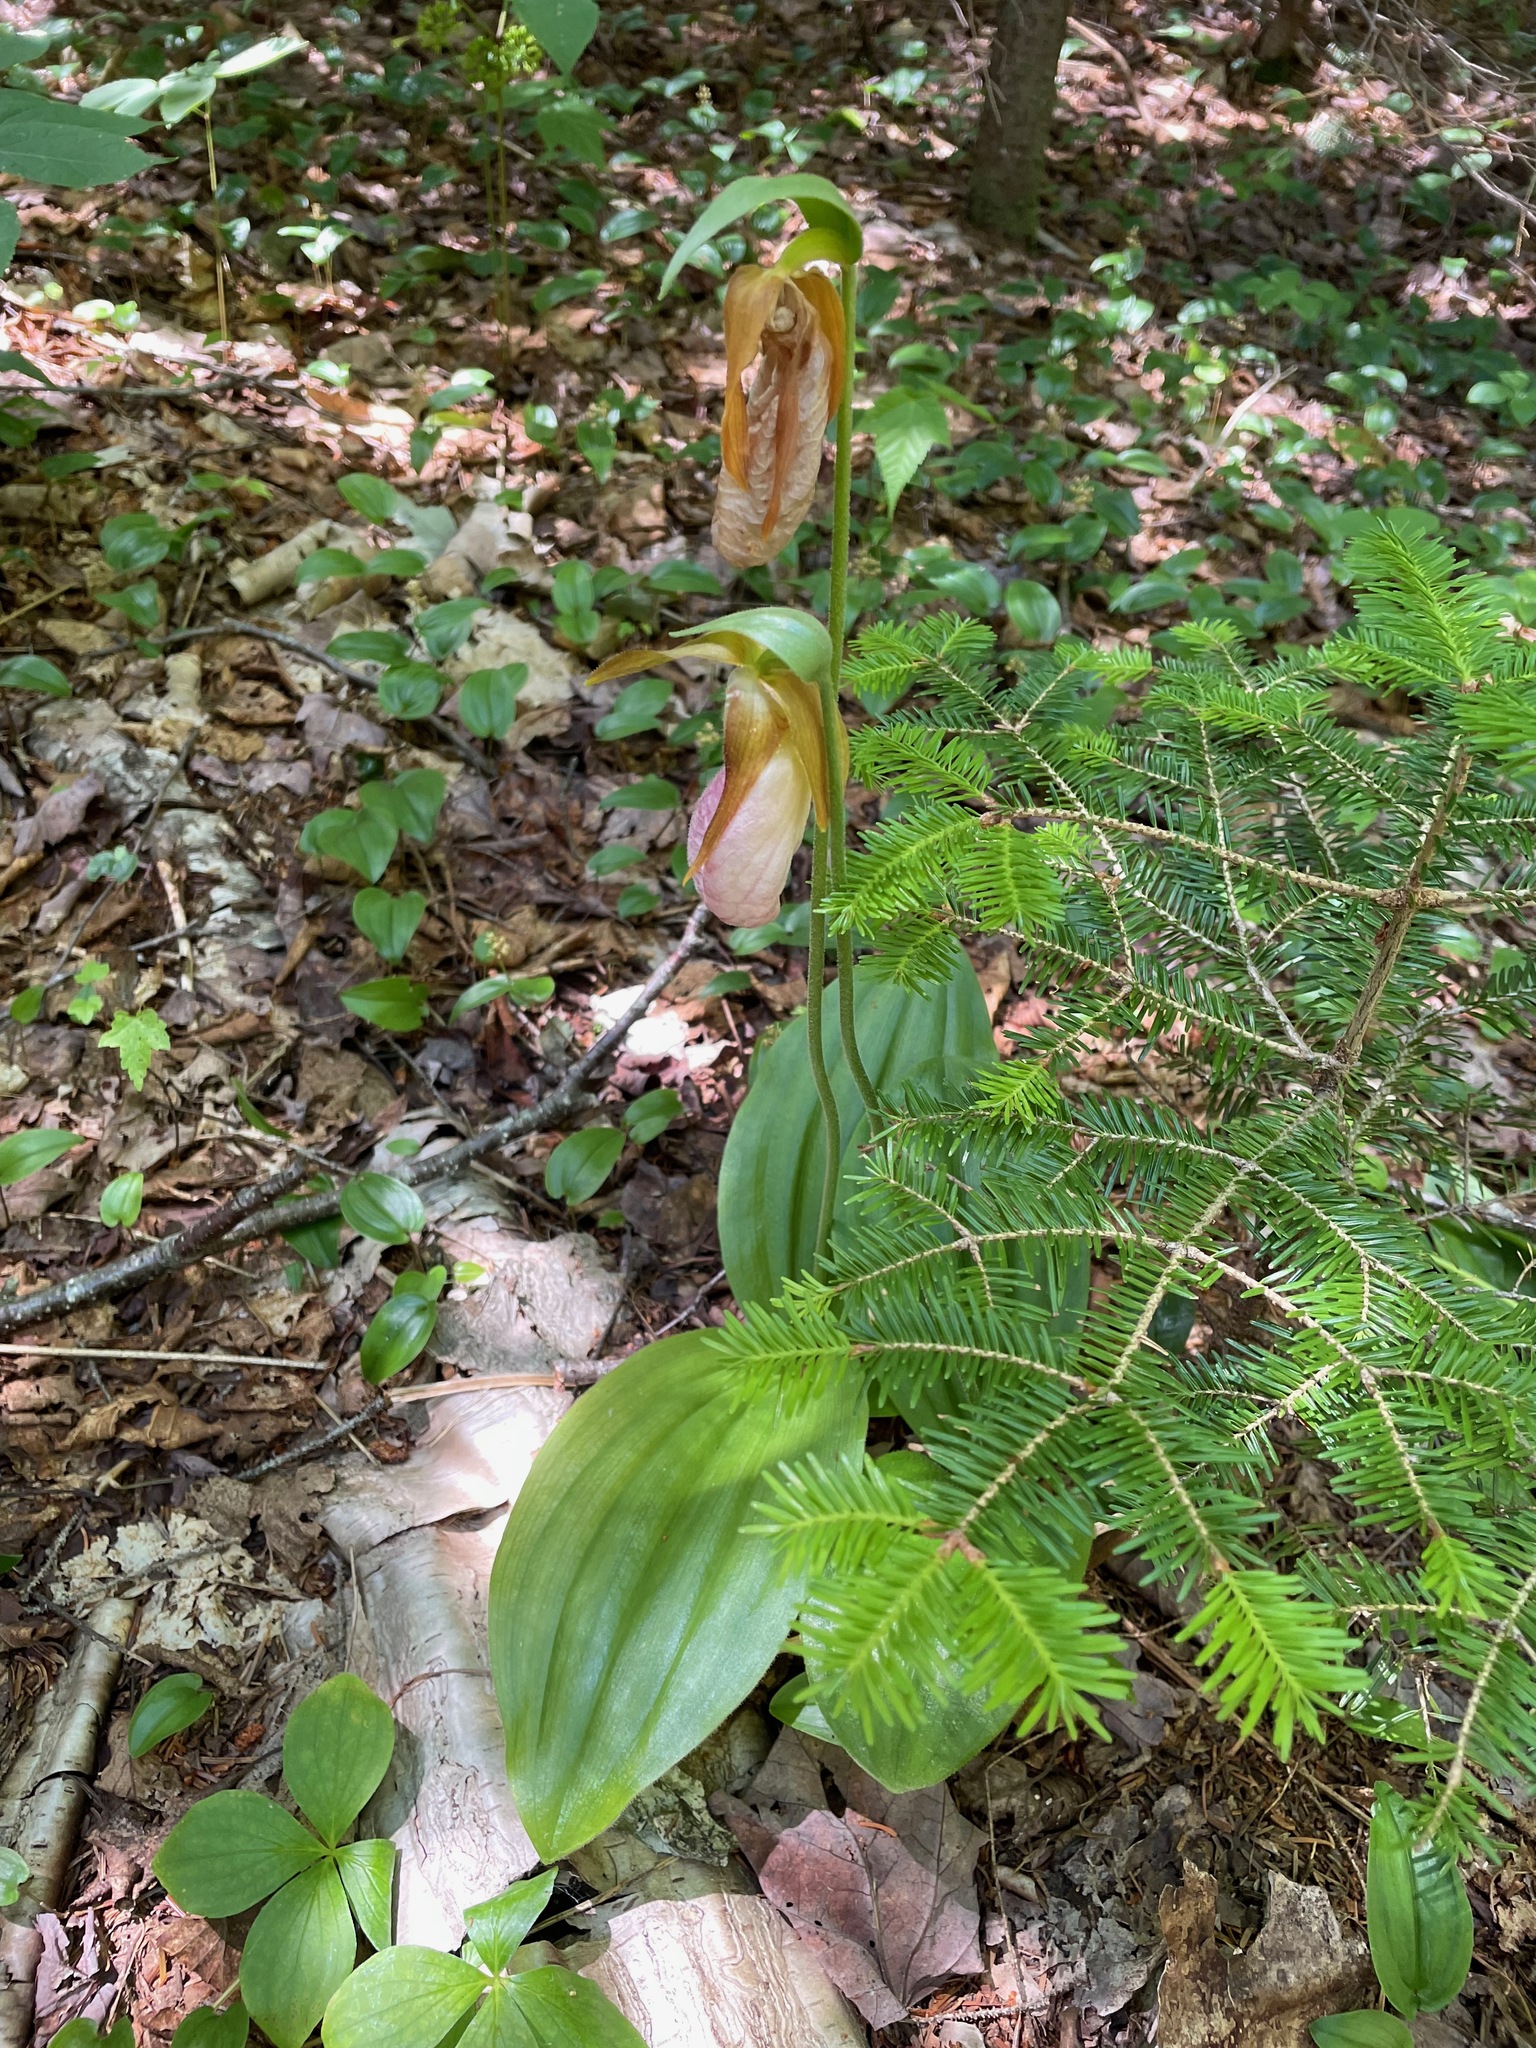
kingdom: Plantae
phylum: Tracheophyta
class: Liliopsida
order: Asparagales
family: Orchidaceae
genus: Cypripedium
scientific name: Cypripedium acaule
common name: Pink lady's-slipper
